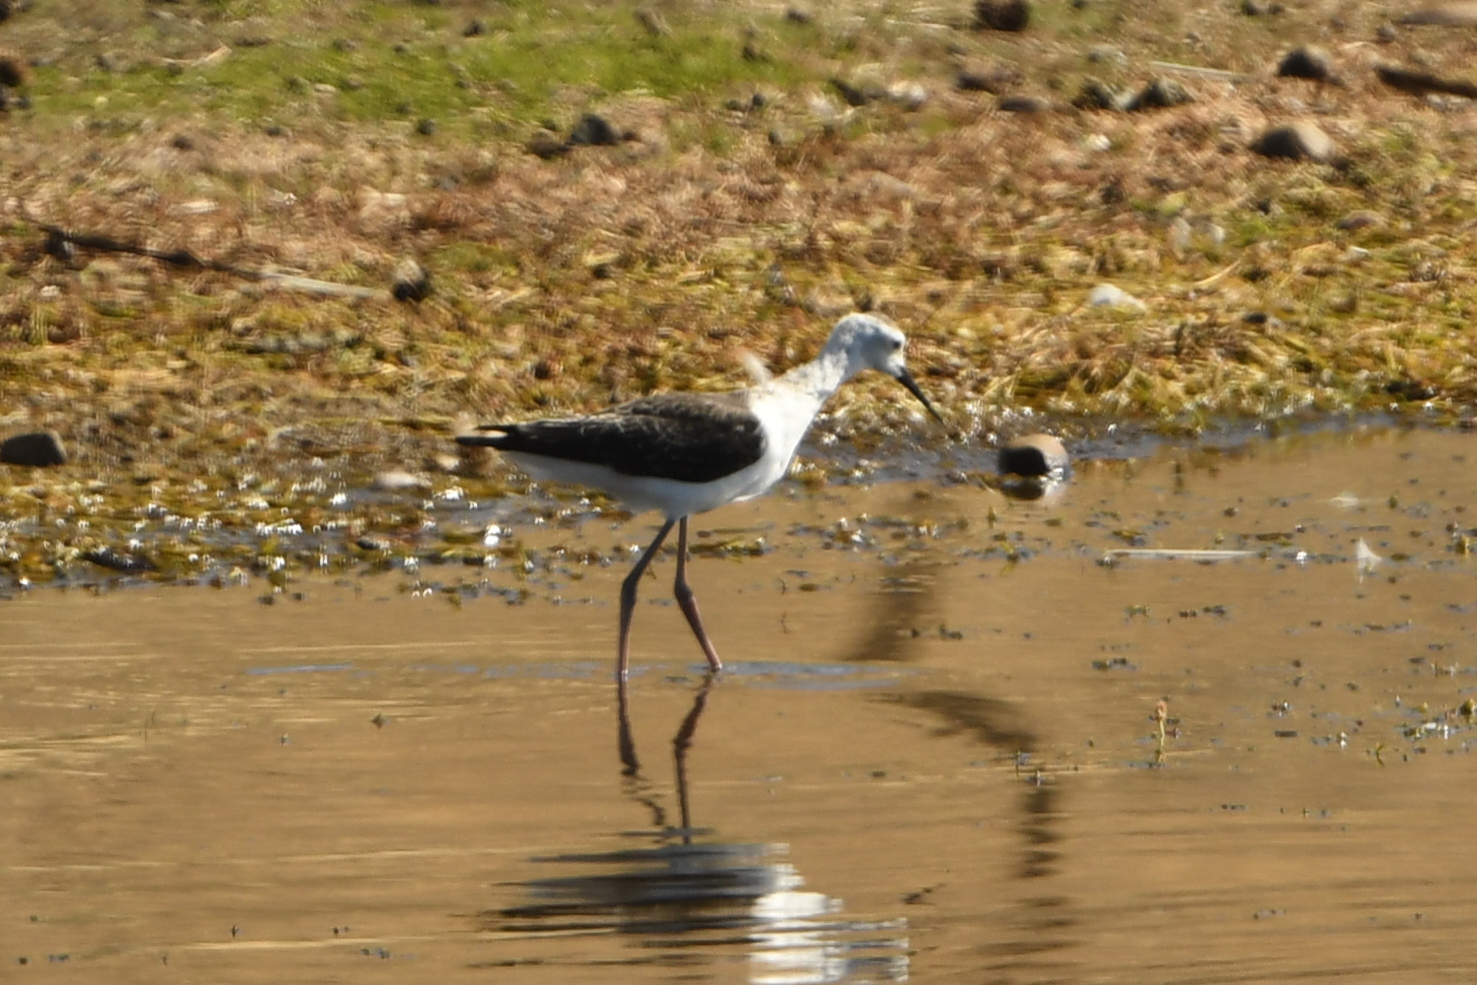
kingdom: Animalia
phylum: Chordata
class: Aves
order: Charadriiformes
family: Recurvirostridae
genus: Himantopus
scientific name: Himantopus leucocephalus
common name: White-headed stilt
